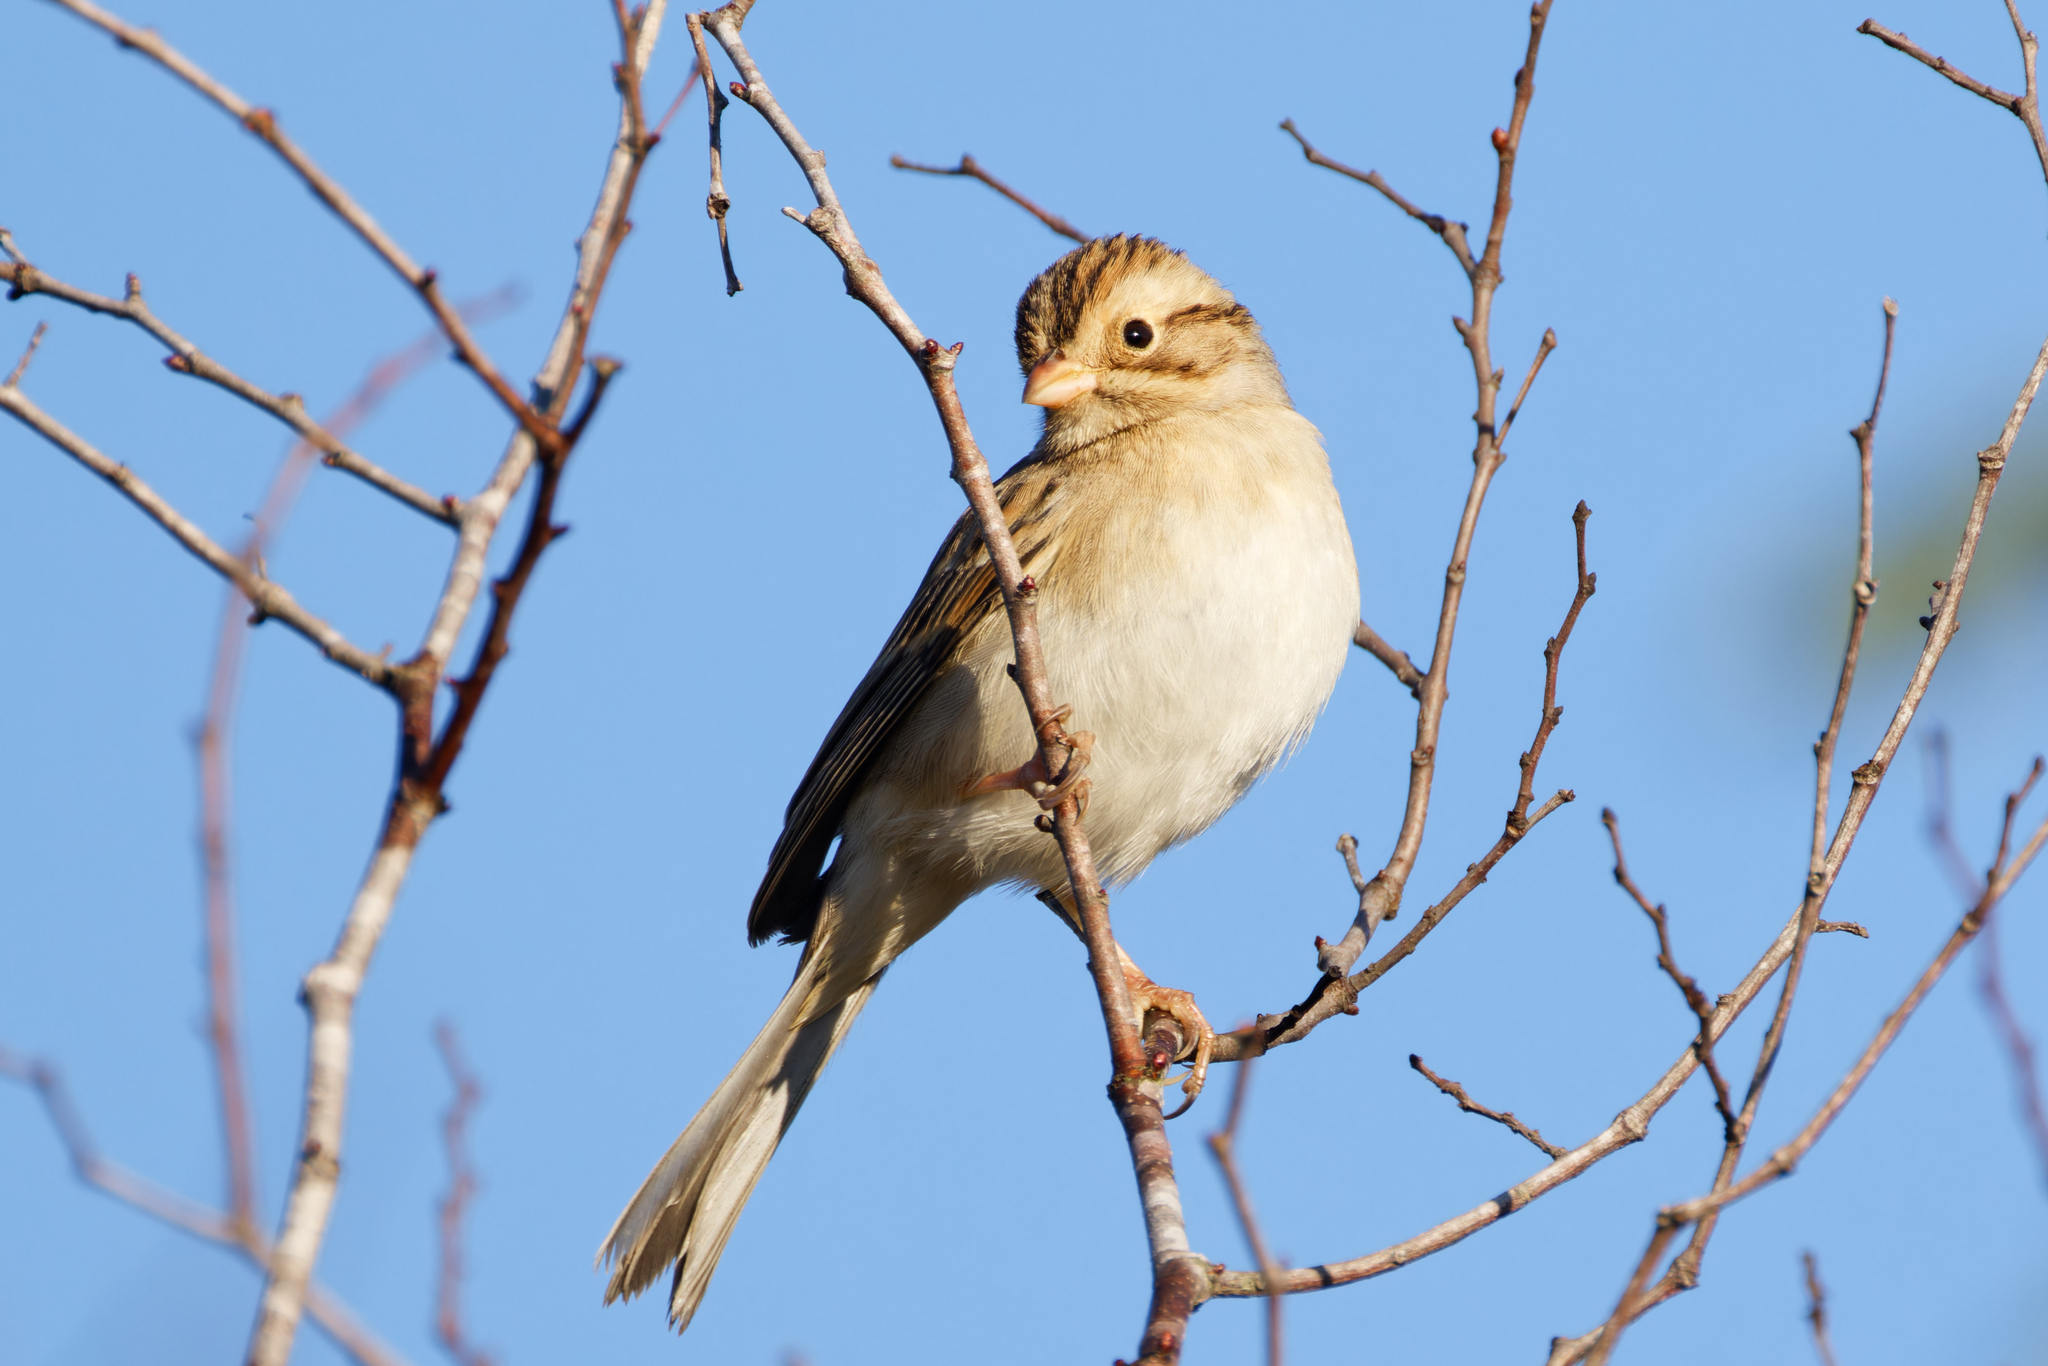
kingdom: Animalia
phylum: Chordata
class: Aves
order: Passeriformes
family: Passerellidae
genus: Spizella
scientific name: Spizella pallida
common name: Clay-colored sparrow
